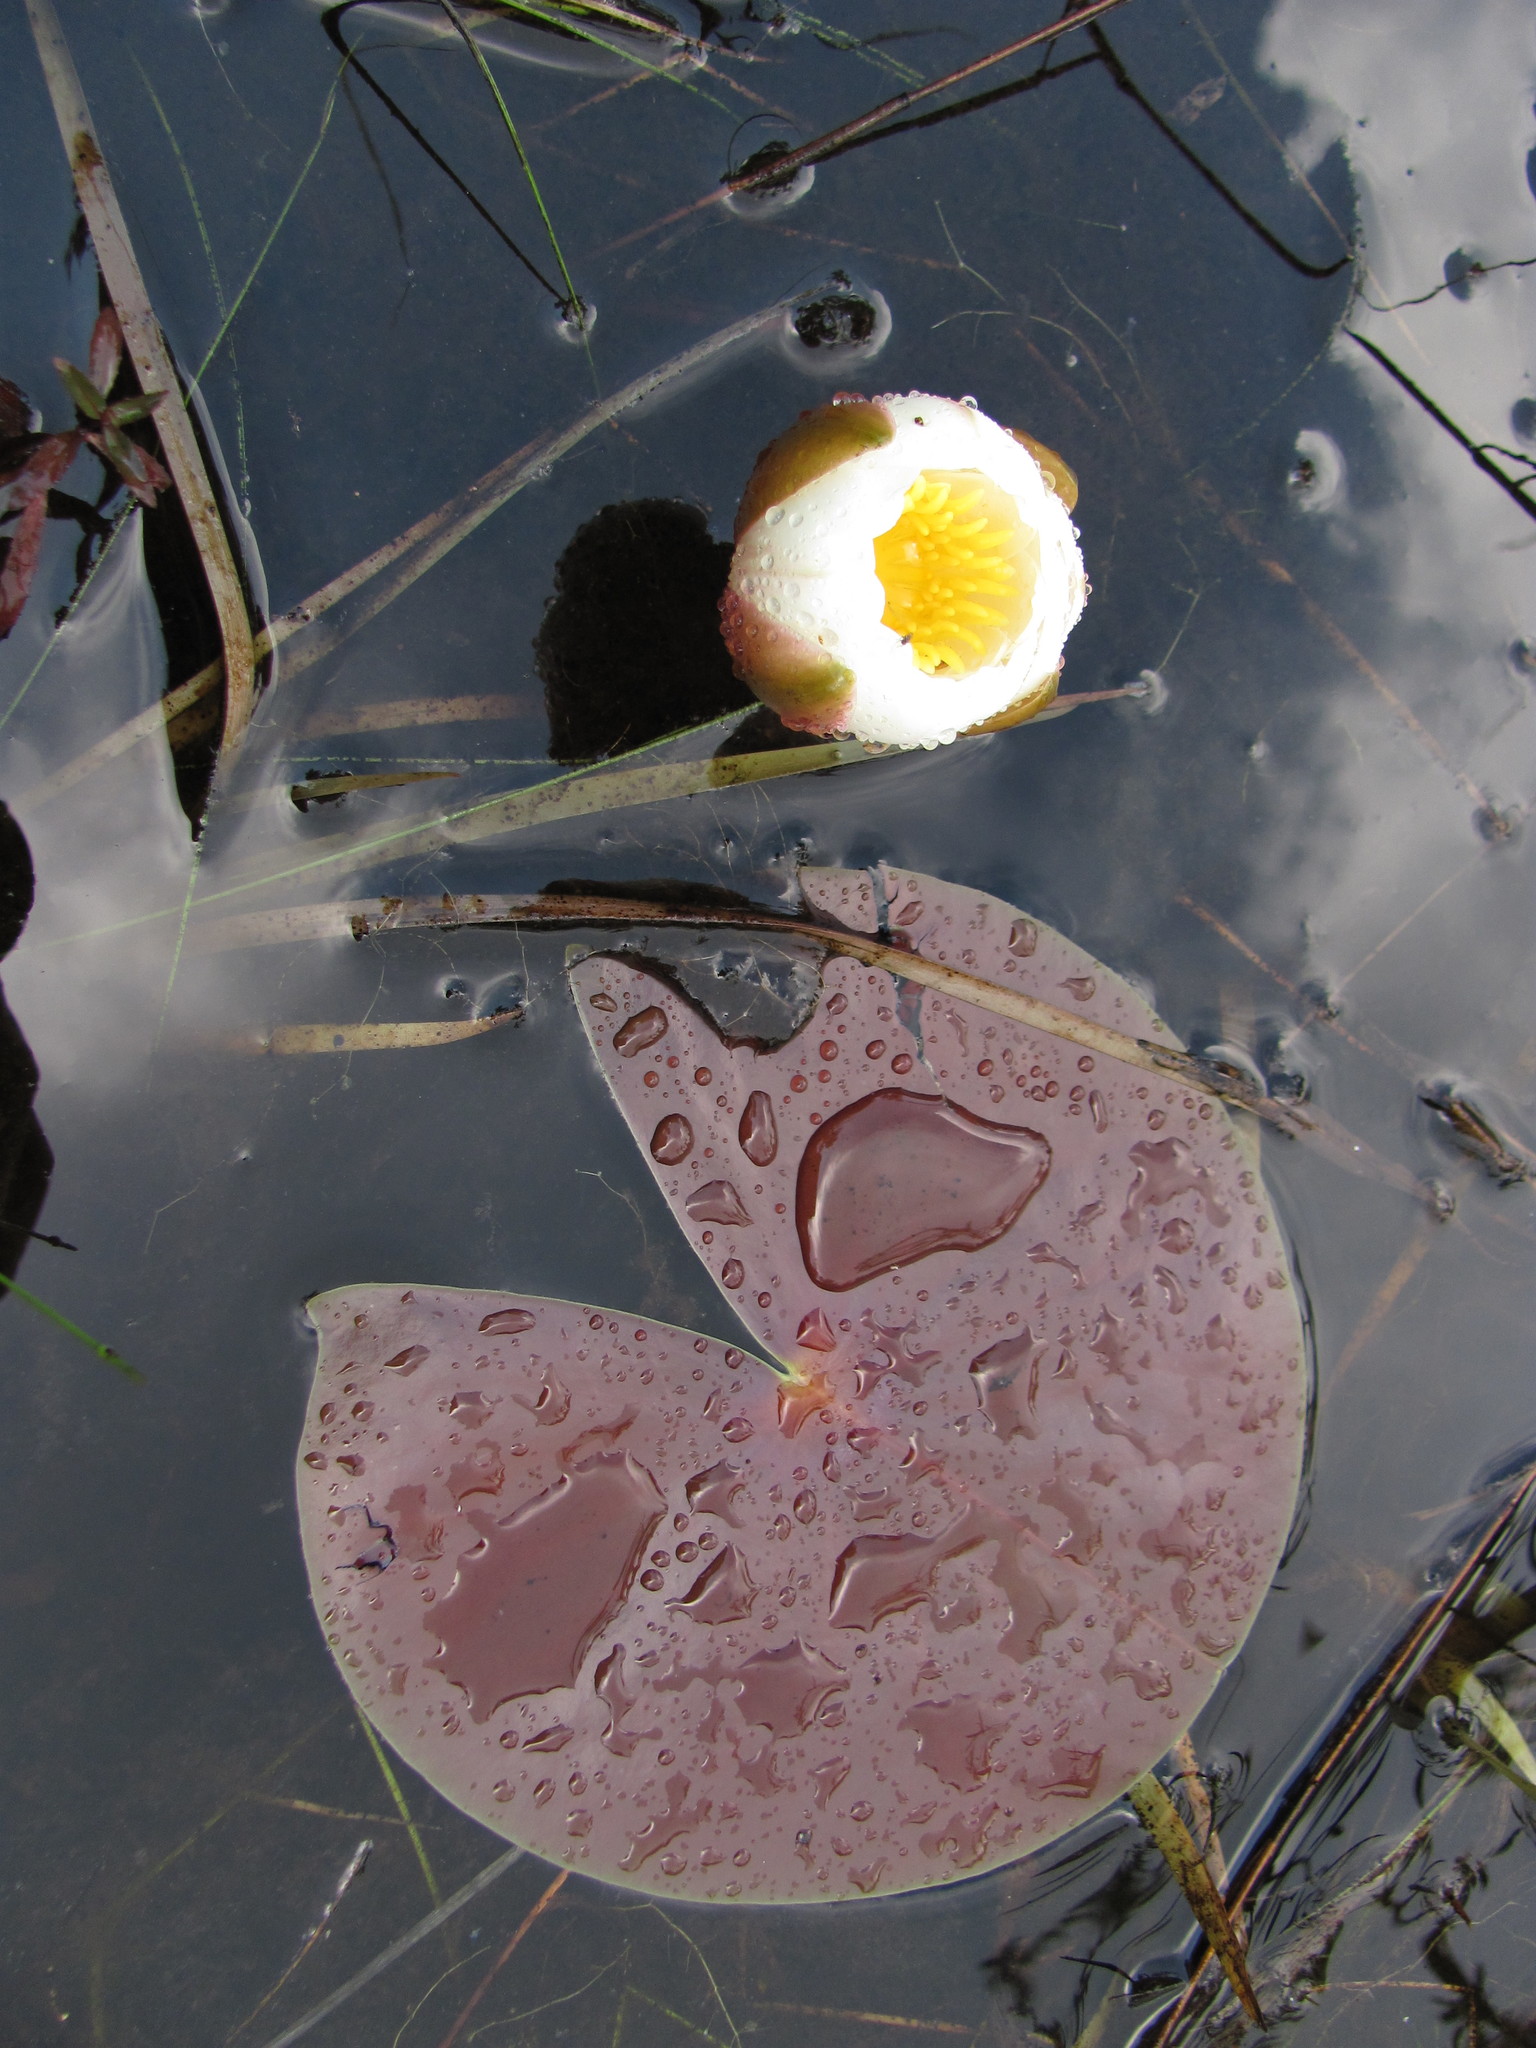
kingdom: Plantae
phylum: Tracheophyta
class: Magnoliopsida
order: Nymphaeales
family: Nymphaeaceae
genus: Nymphaea
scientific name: Nymphaea odorata
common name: Fragrant water-lily
